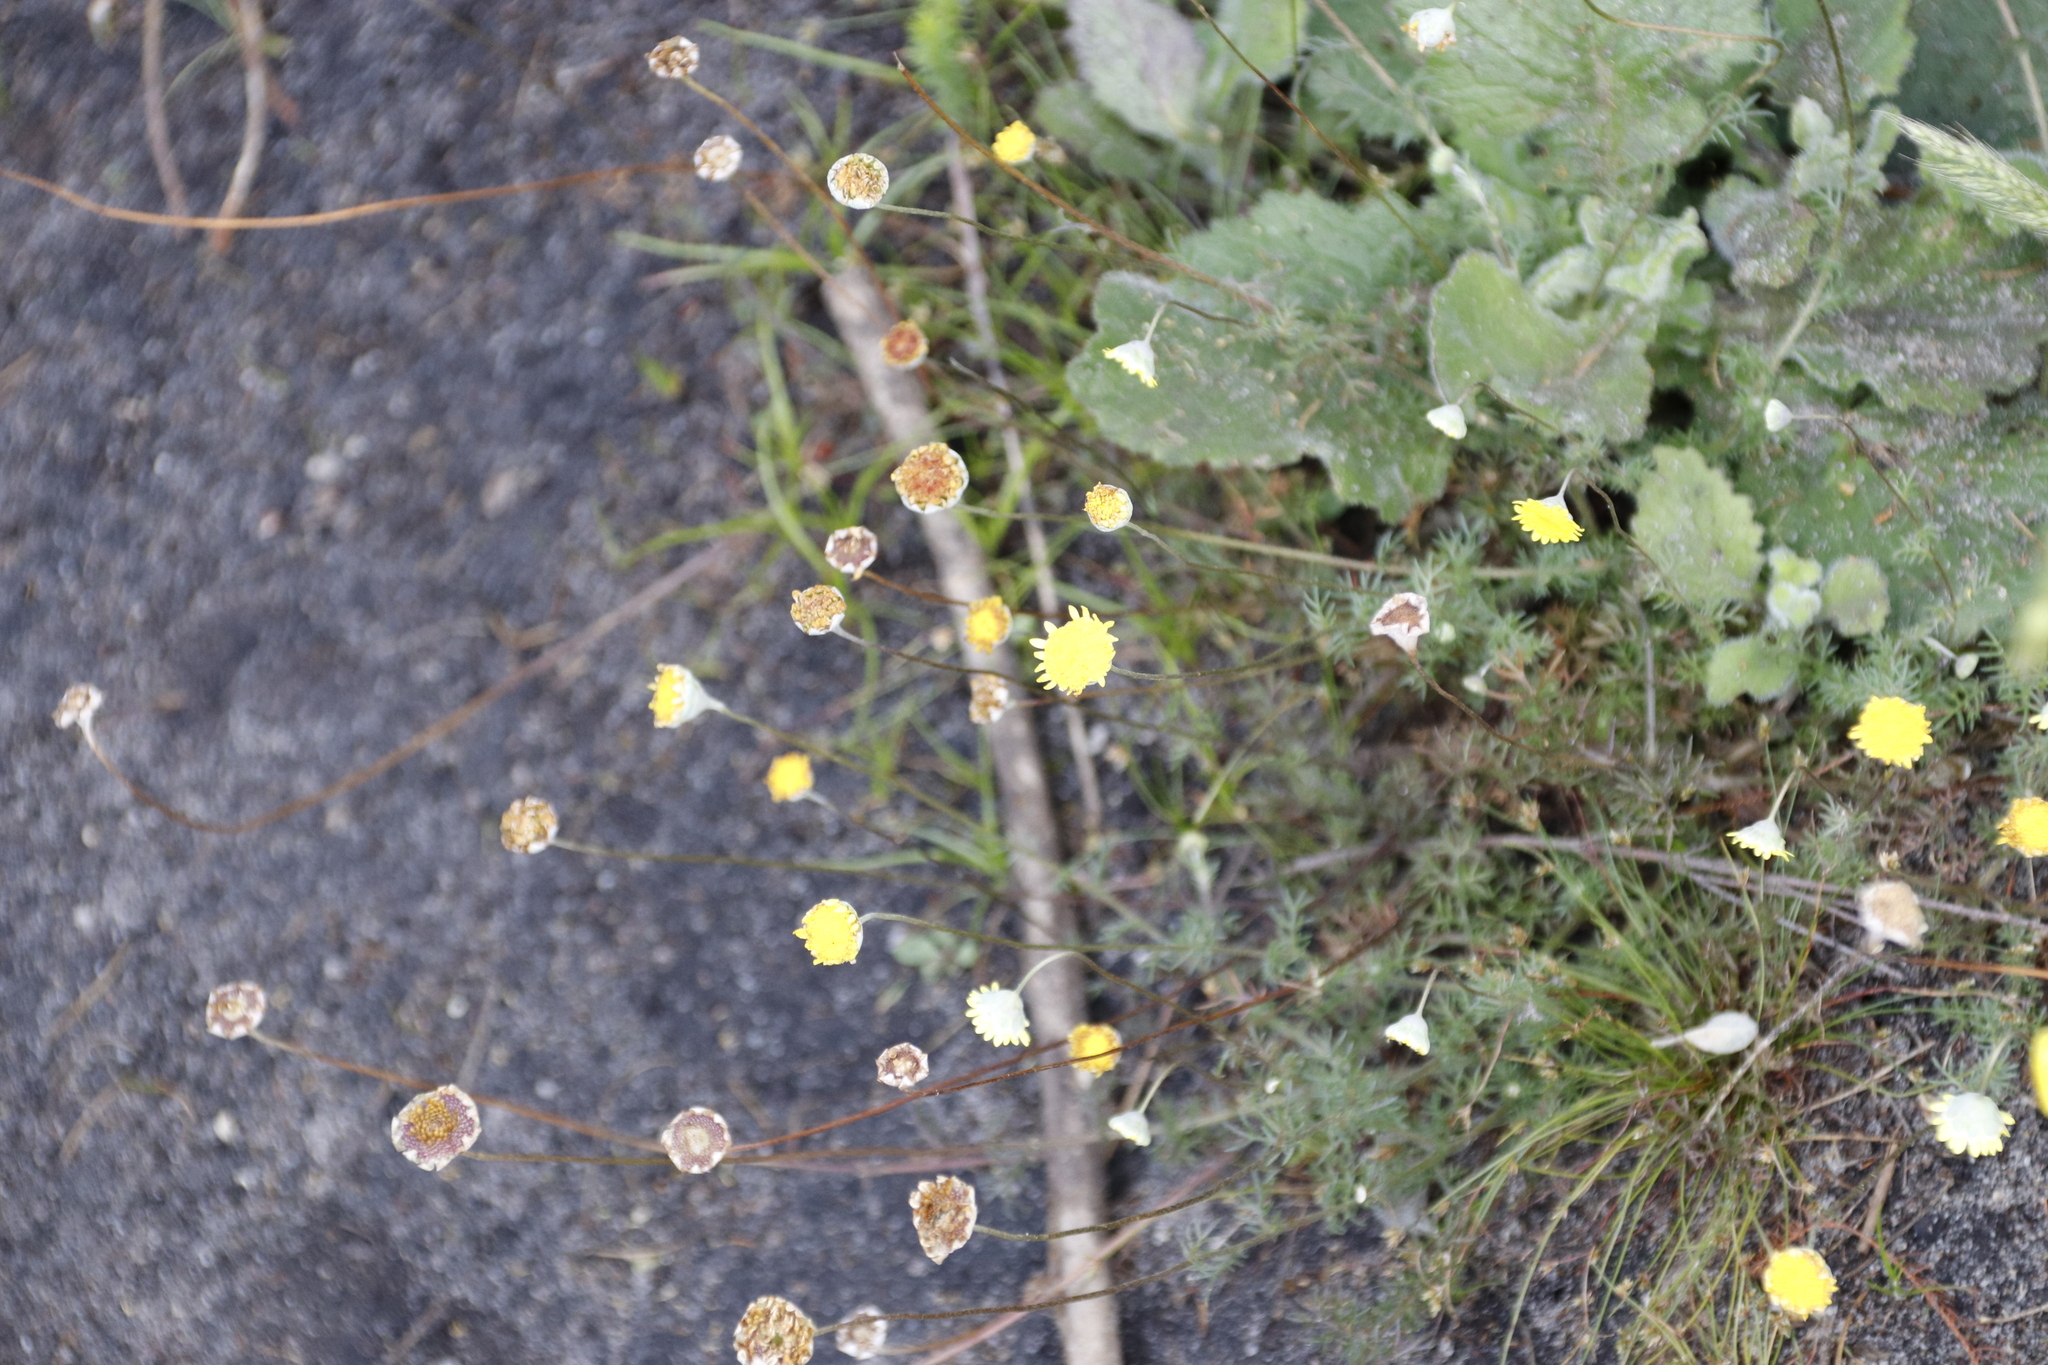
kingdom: Plantae
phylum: Tracheophyta
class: Magnoliopsida
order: Asterales
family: Asteraceae
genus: Cotula
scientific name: Cotula pruinosa
